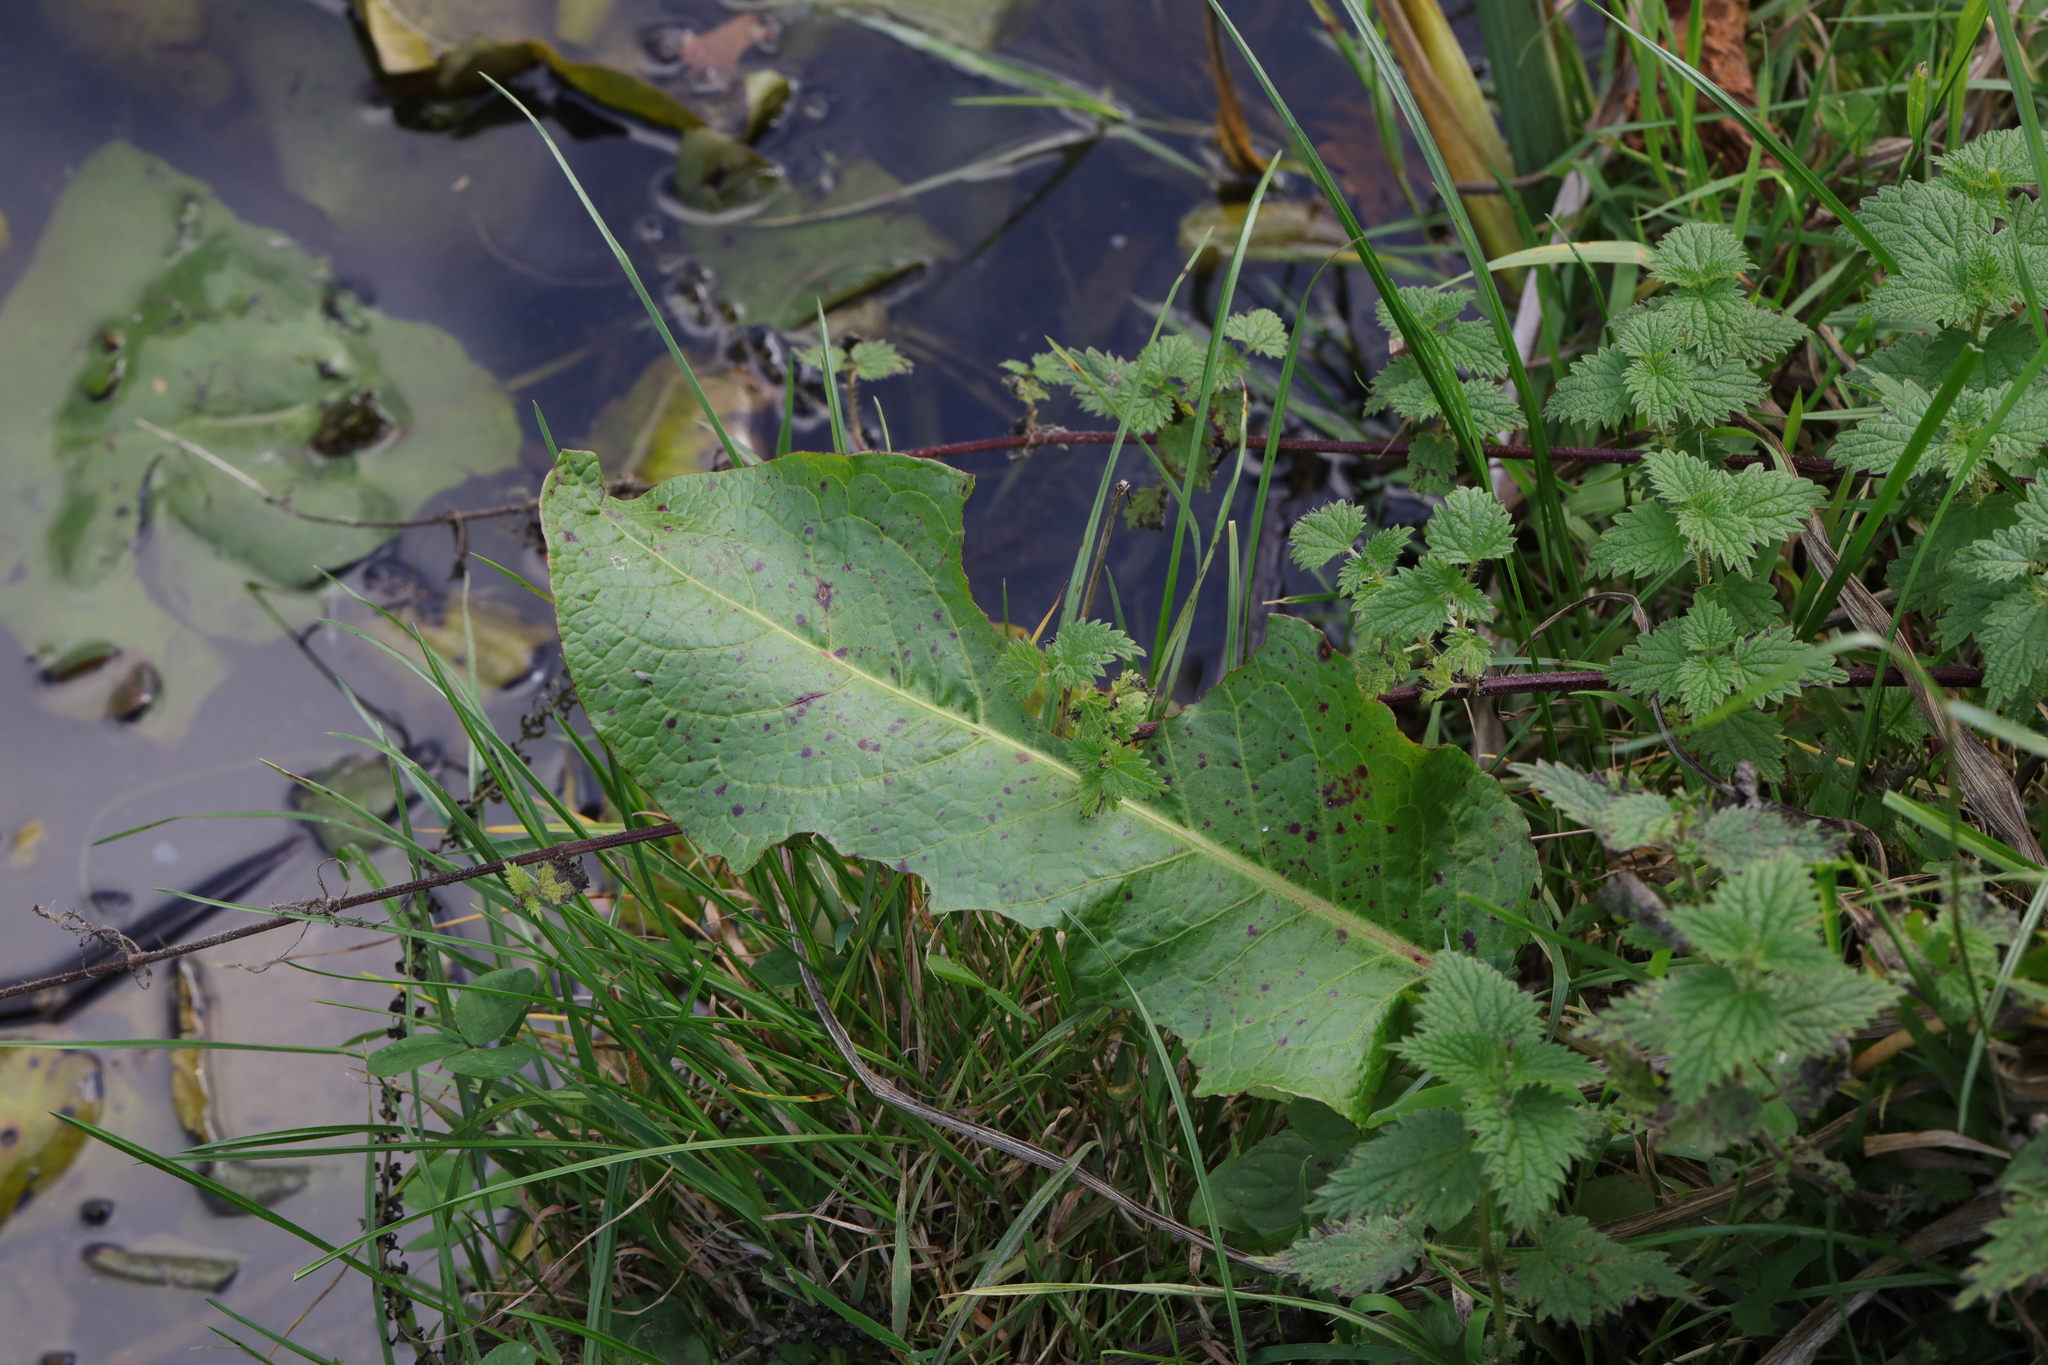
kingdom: Plantae
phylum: Tracheophyta
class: Magnoliopsida
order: Caryophyllales
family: Polygonaceae
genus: Rumex
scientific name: Rumex obtusifolius
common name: Bitter dock
